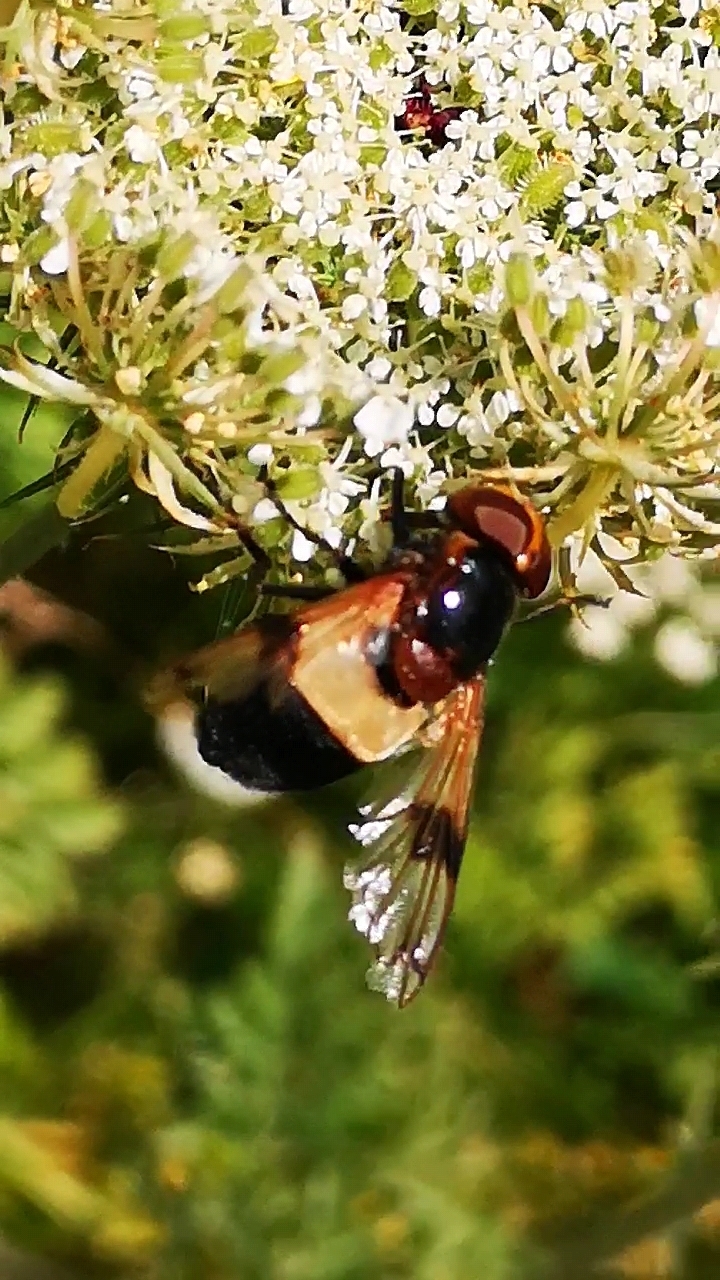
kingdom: Animalia
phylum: Arthropoda
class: Insecta
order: Diptera
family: Syrphidae
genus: Volucella
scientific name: Volucella pellucens
